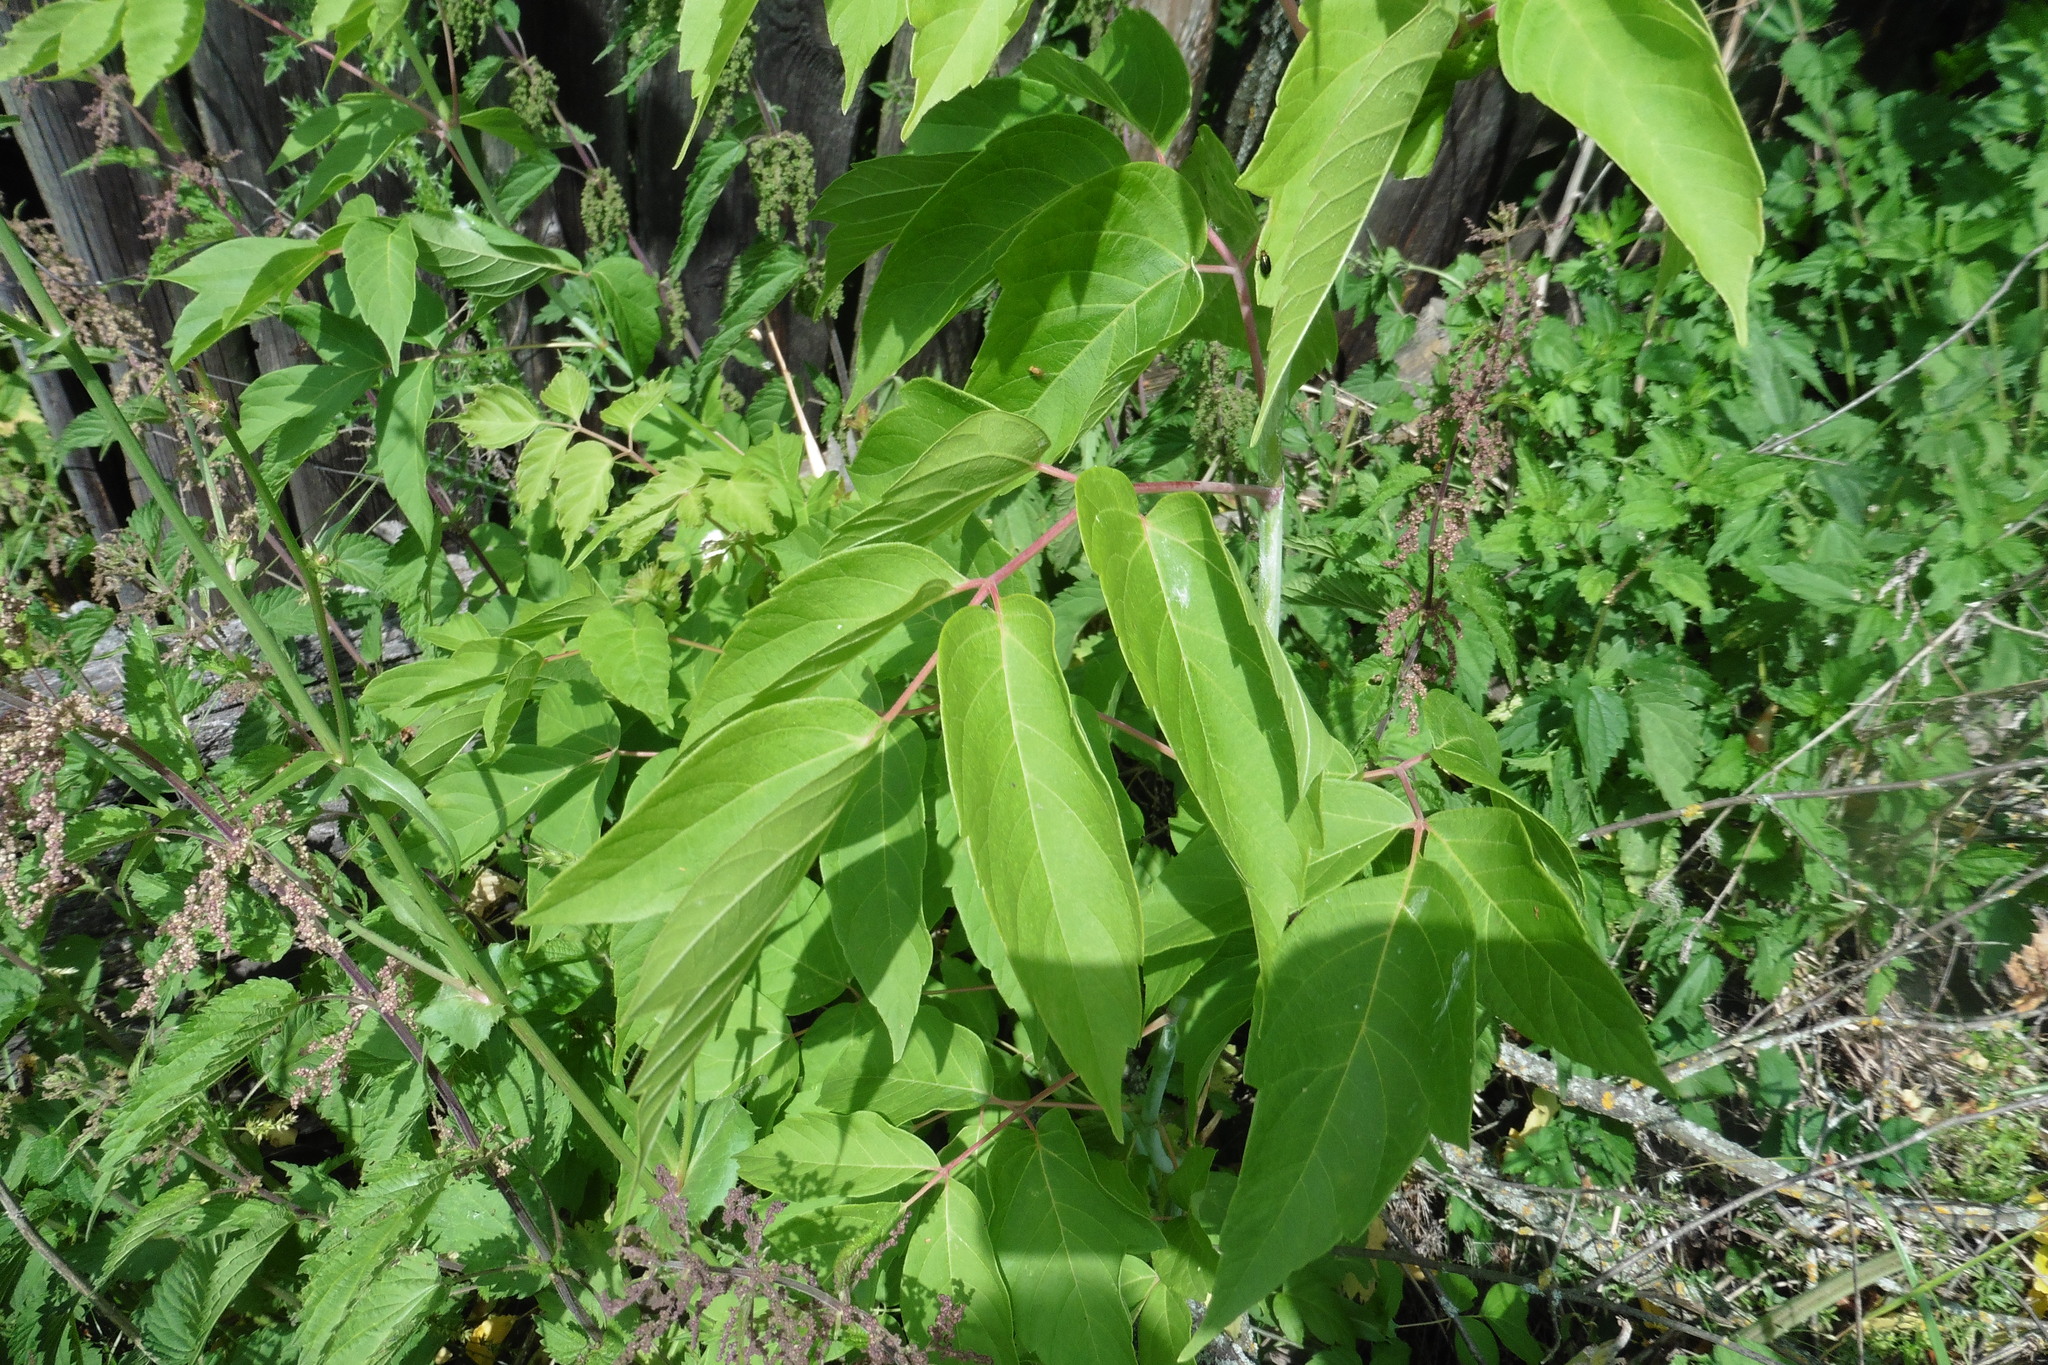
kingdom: Plantae
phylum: Tracheophyta
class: Magnoliopsida
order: Sapindales
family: Sapindaceae
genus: Acer
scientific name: Acer negundo
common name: Ashleaf maple
